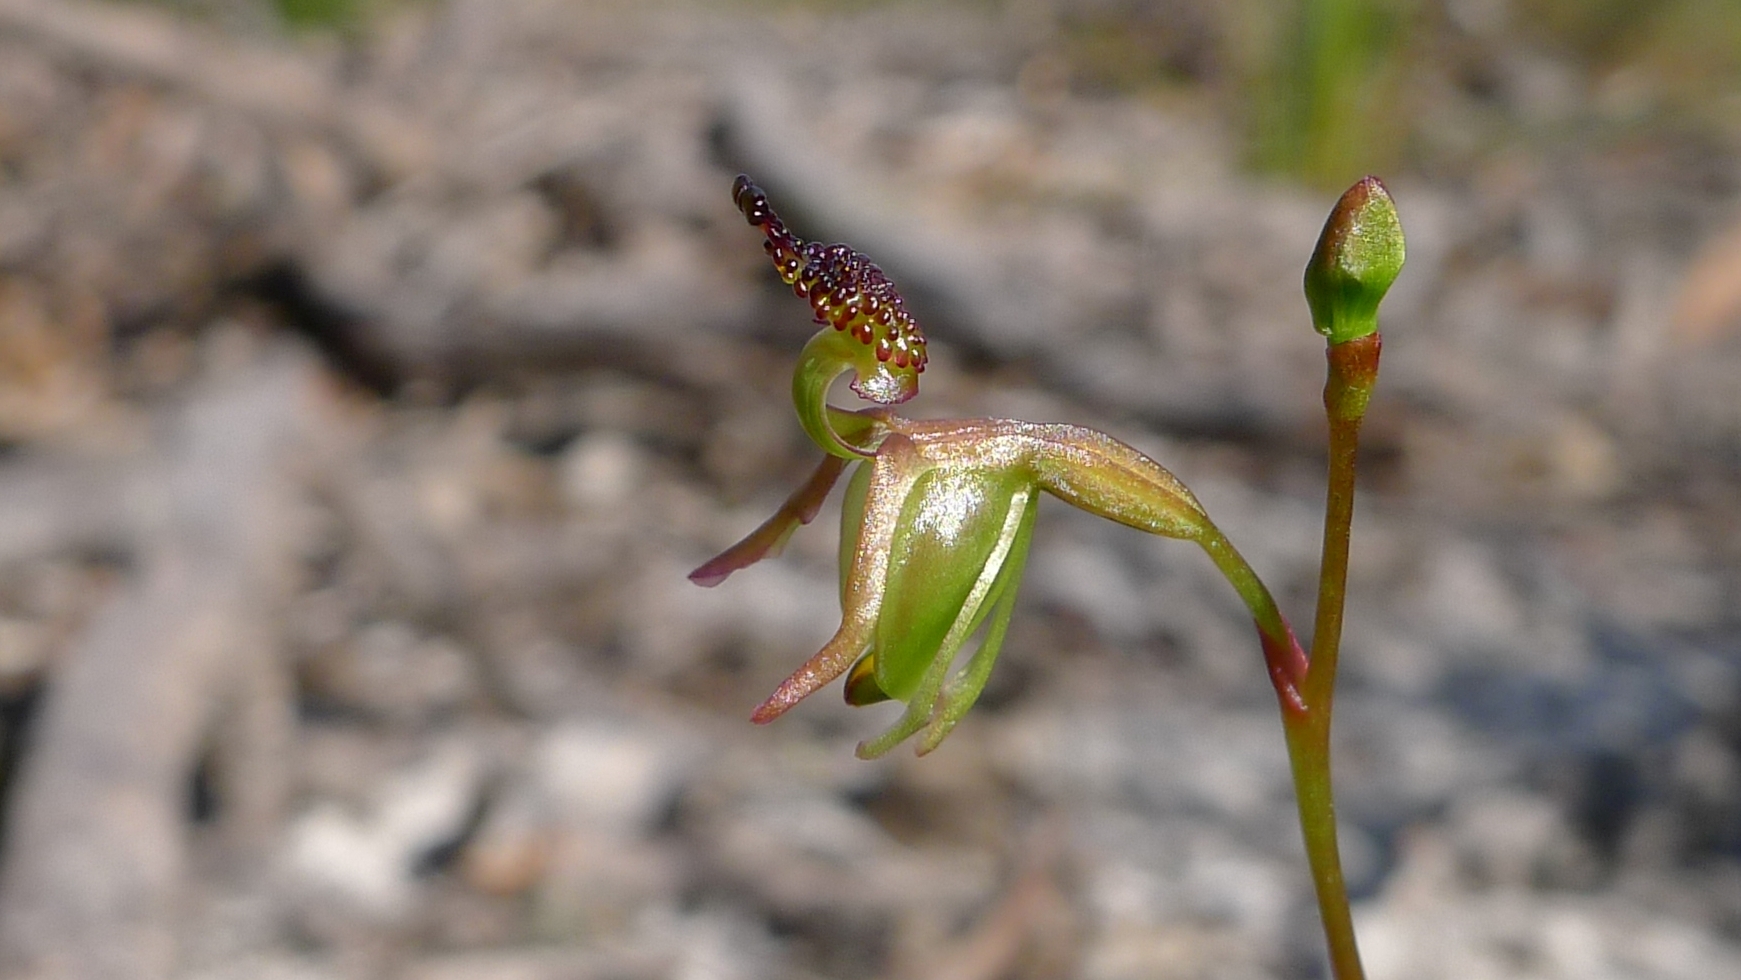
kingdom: Plantae
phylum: Tracheophyta
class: Liliopsida
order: Asparagales
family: Orchidaceae
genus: Caleana
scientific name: Caleana minor
